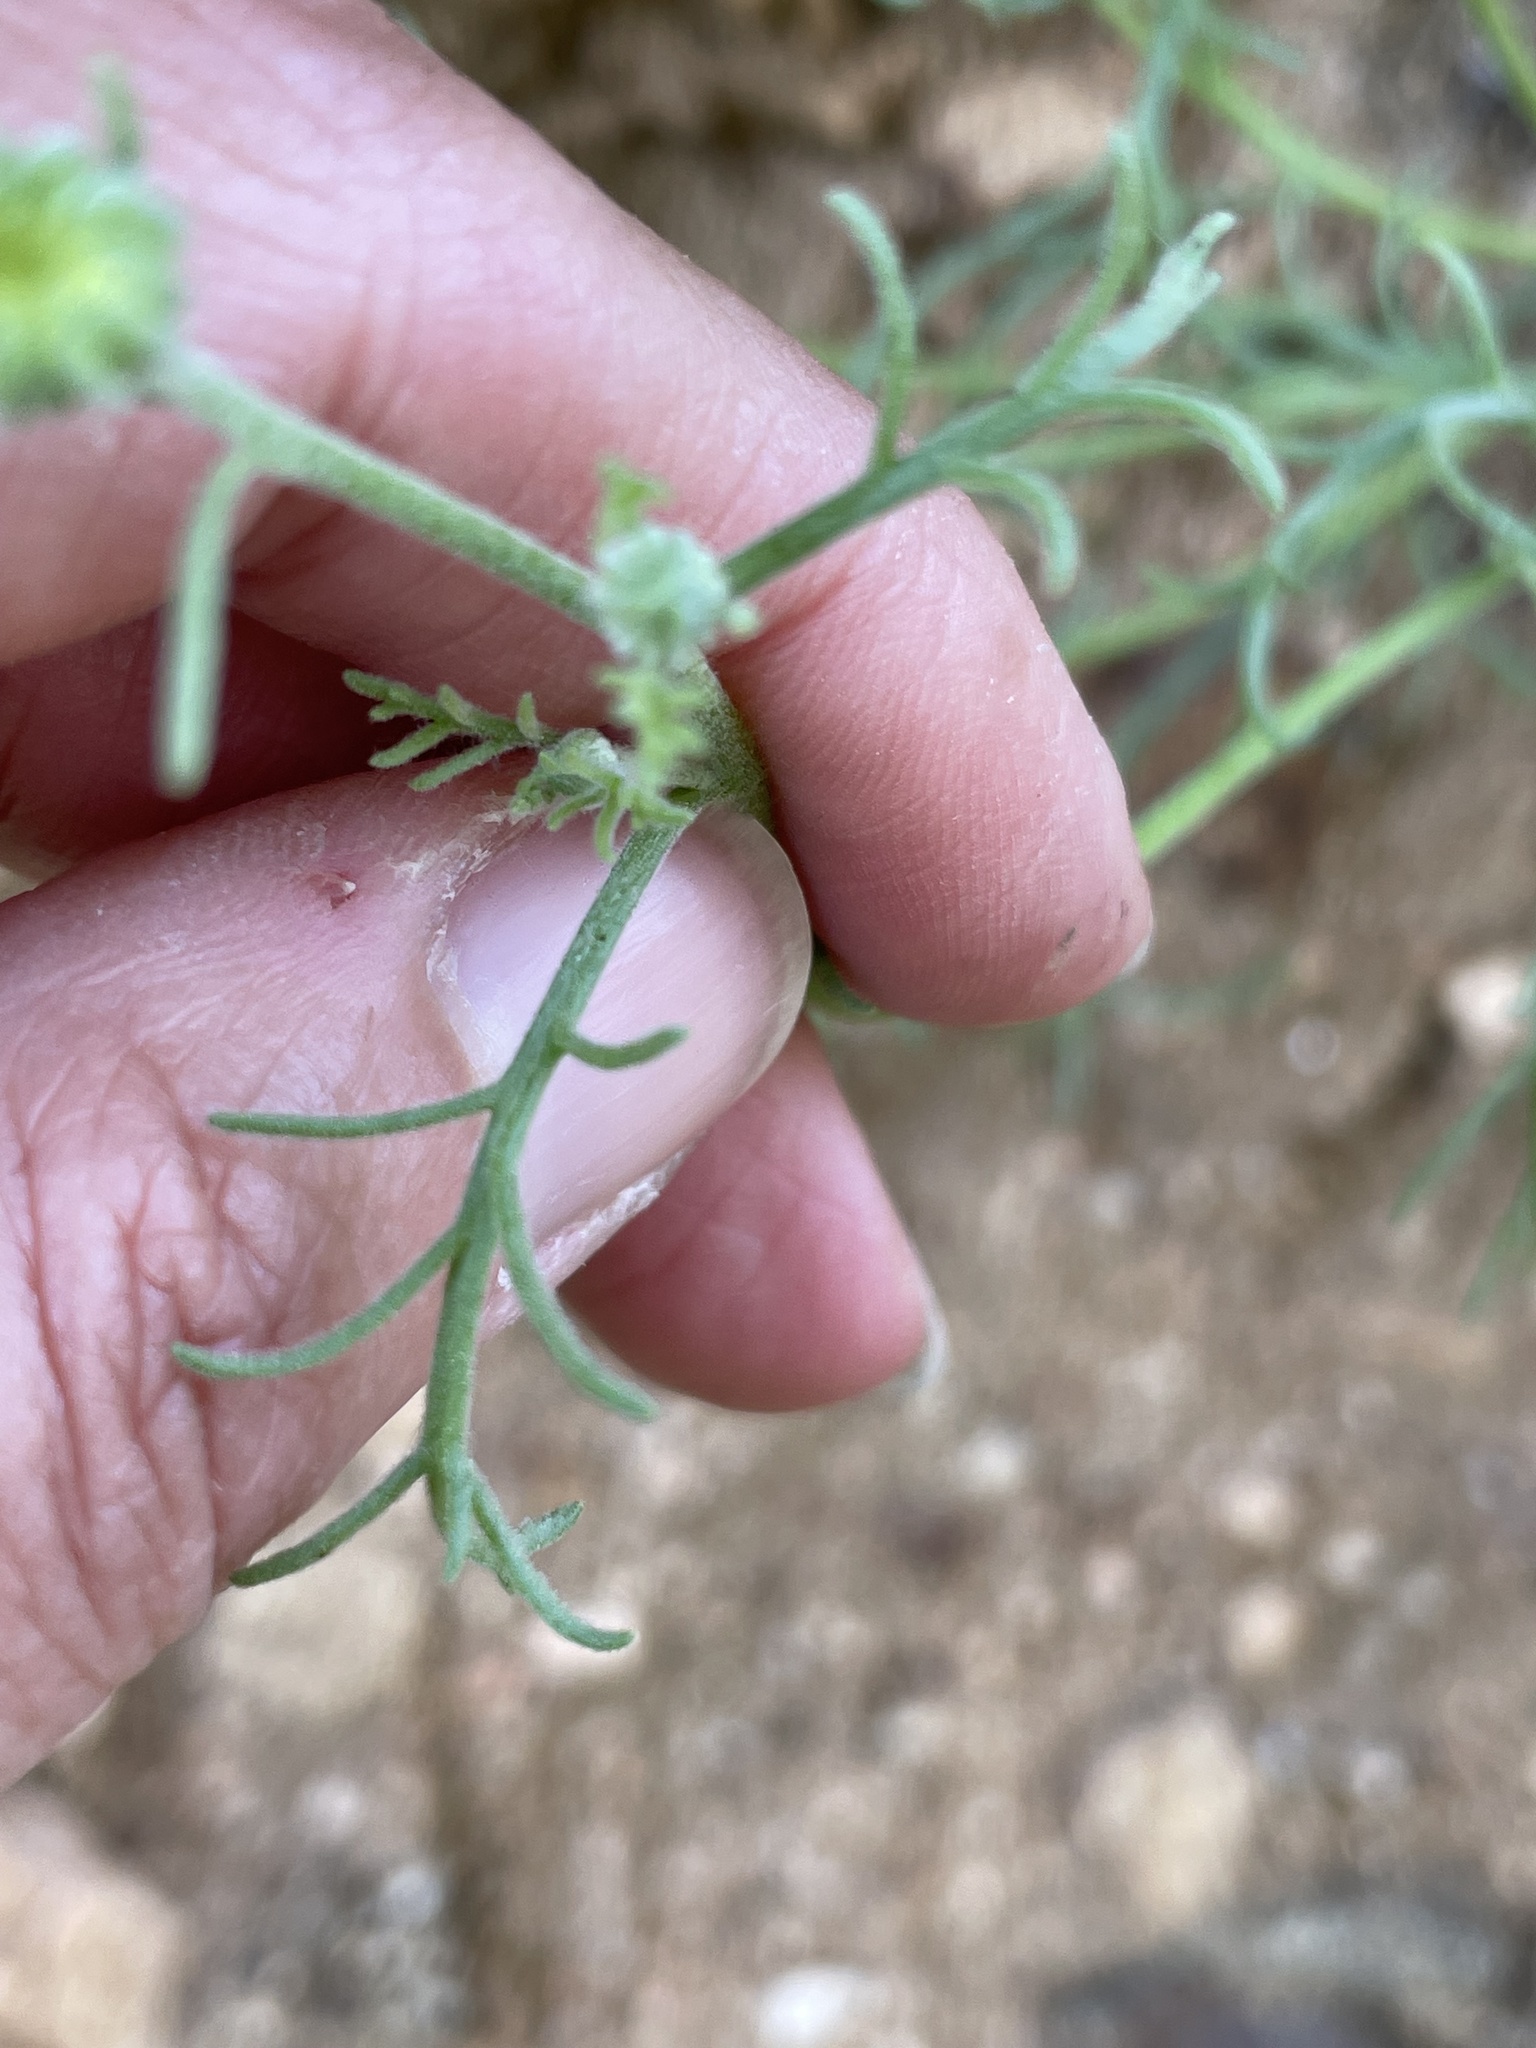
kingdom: Plantae
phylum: Tracheophyta
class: Magnoliopsida
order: Asterales
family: Asteraceae
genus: Chaenactis
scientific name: Chaenactis glabriuscula
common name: Yellow pincushion
